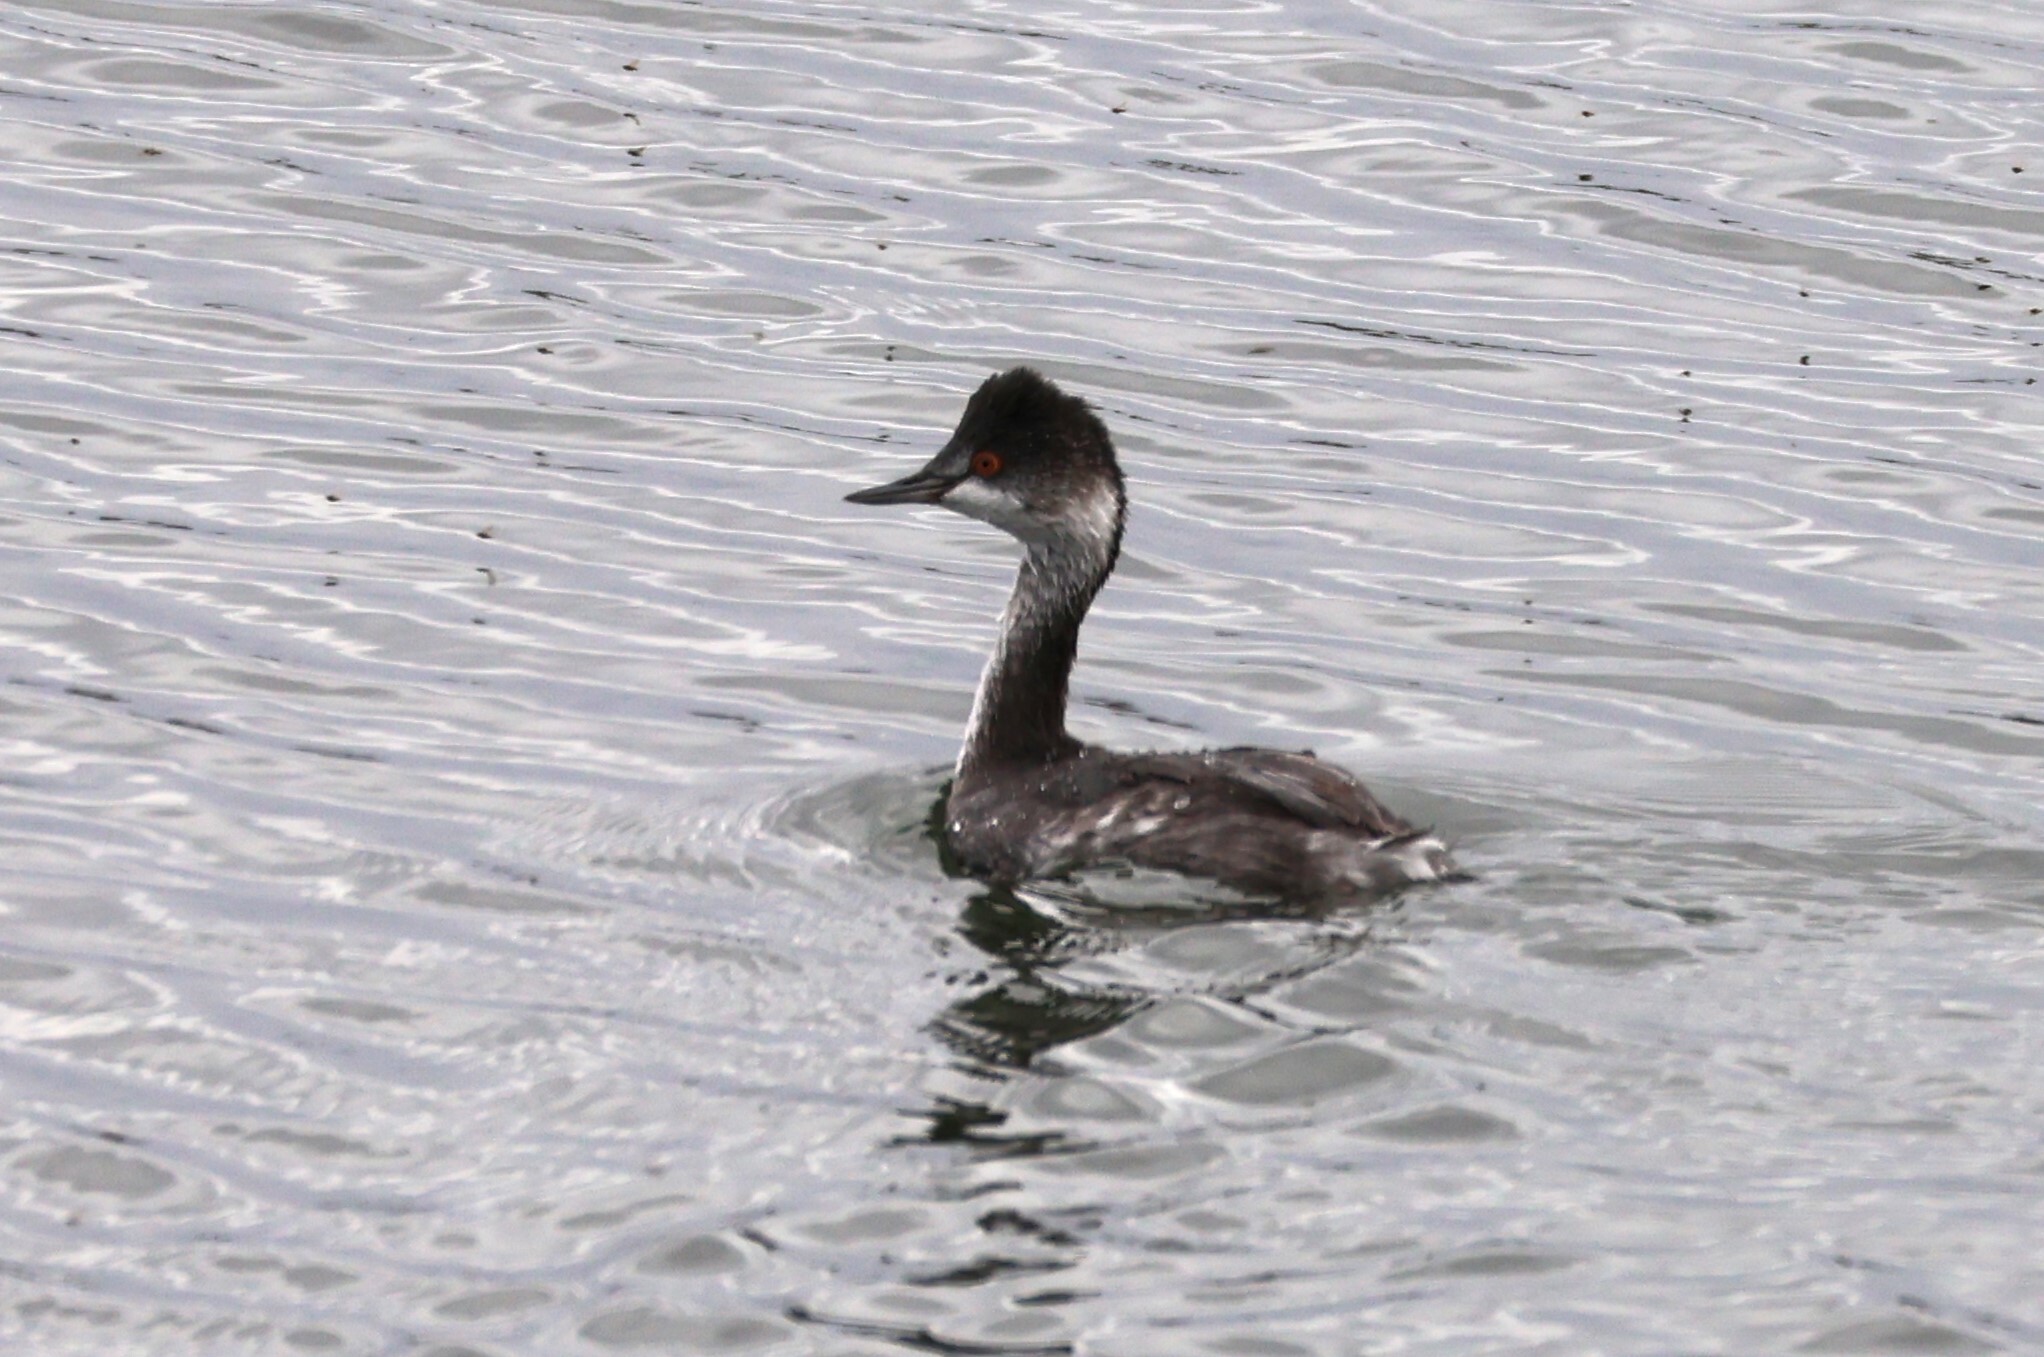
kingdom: Animalia
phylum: Chordata
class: Aves
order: Podicipediformes
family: Podicipedidae
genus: Podiceps
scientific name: Podiceps nigricollis
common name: Black-necked grebe
